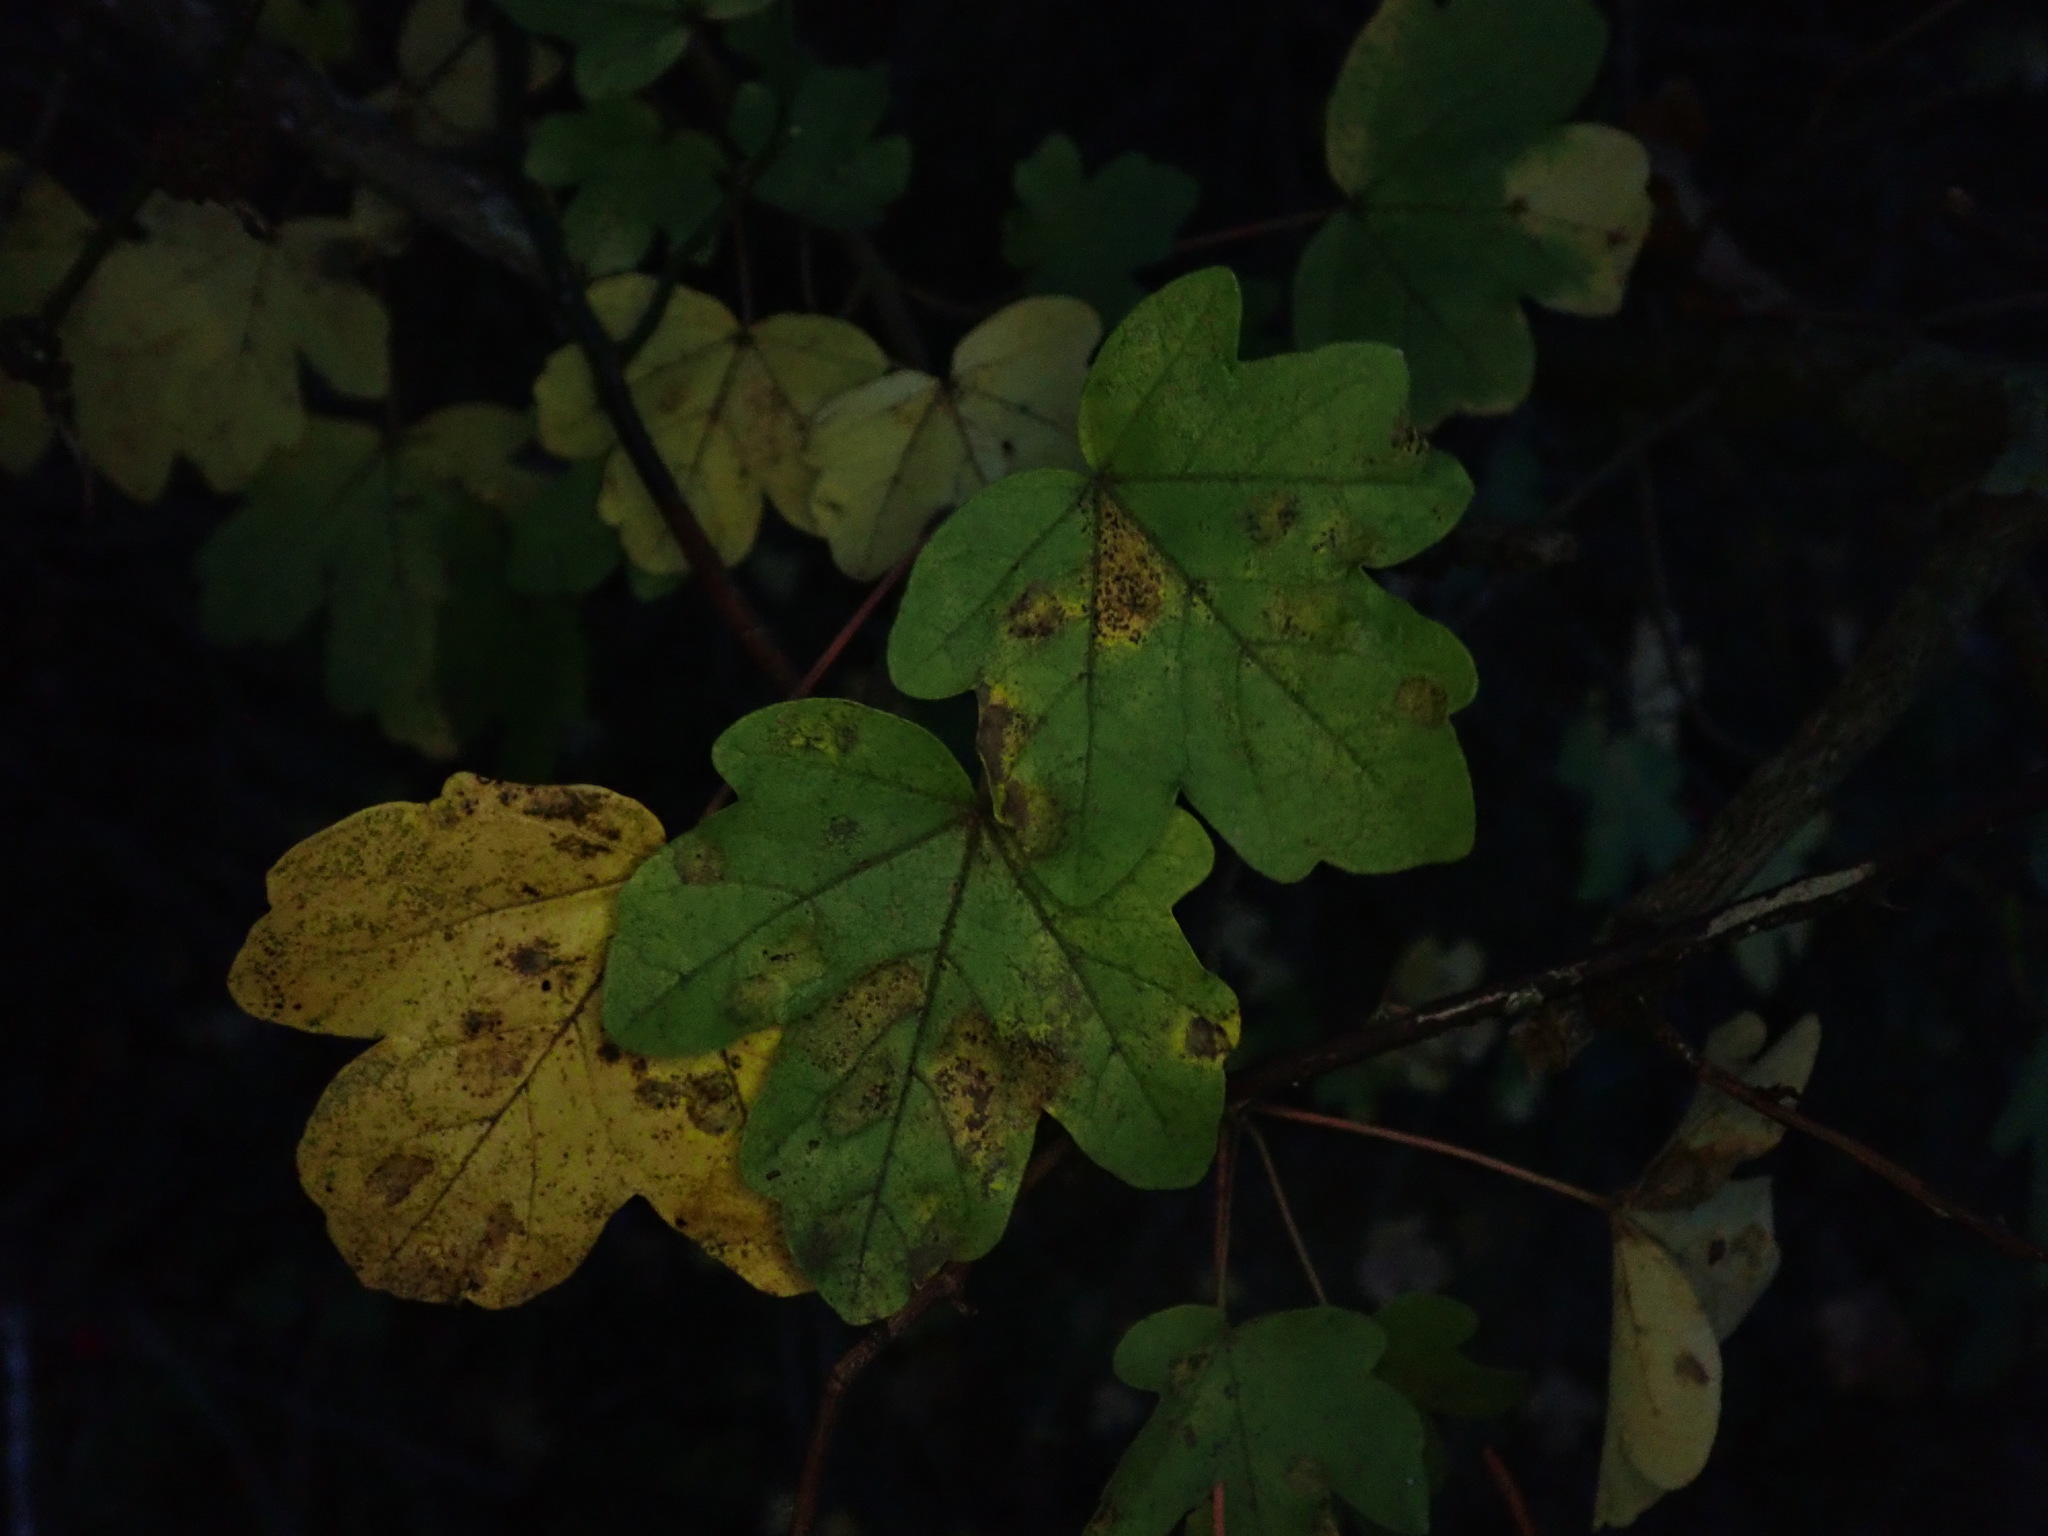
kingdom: Plantae
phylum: Tracheophyta
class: Magnoliopsida
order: Sapindales
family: Sapindaceae
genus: Acer
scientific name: Acer campestre
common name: Field maple
